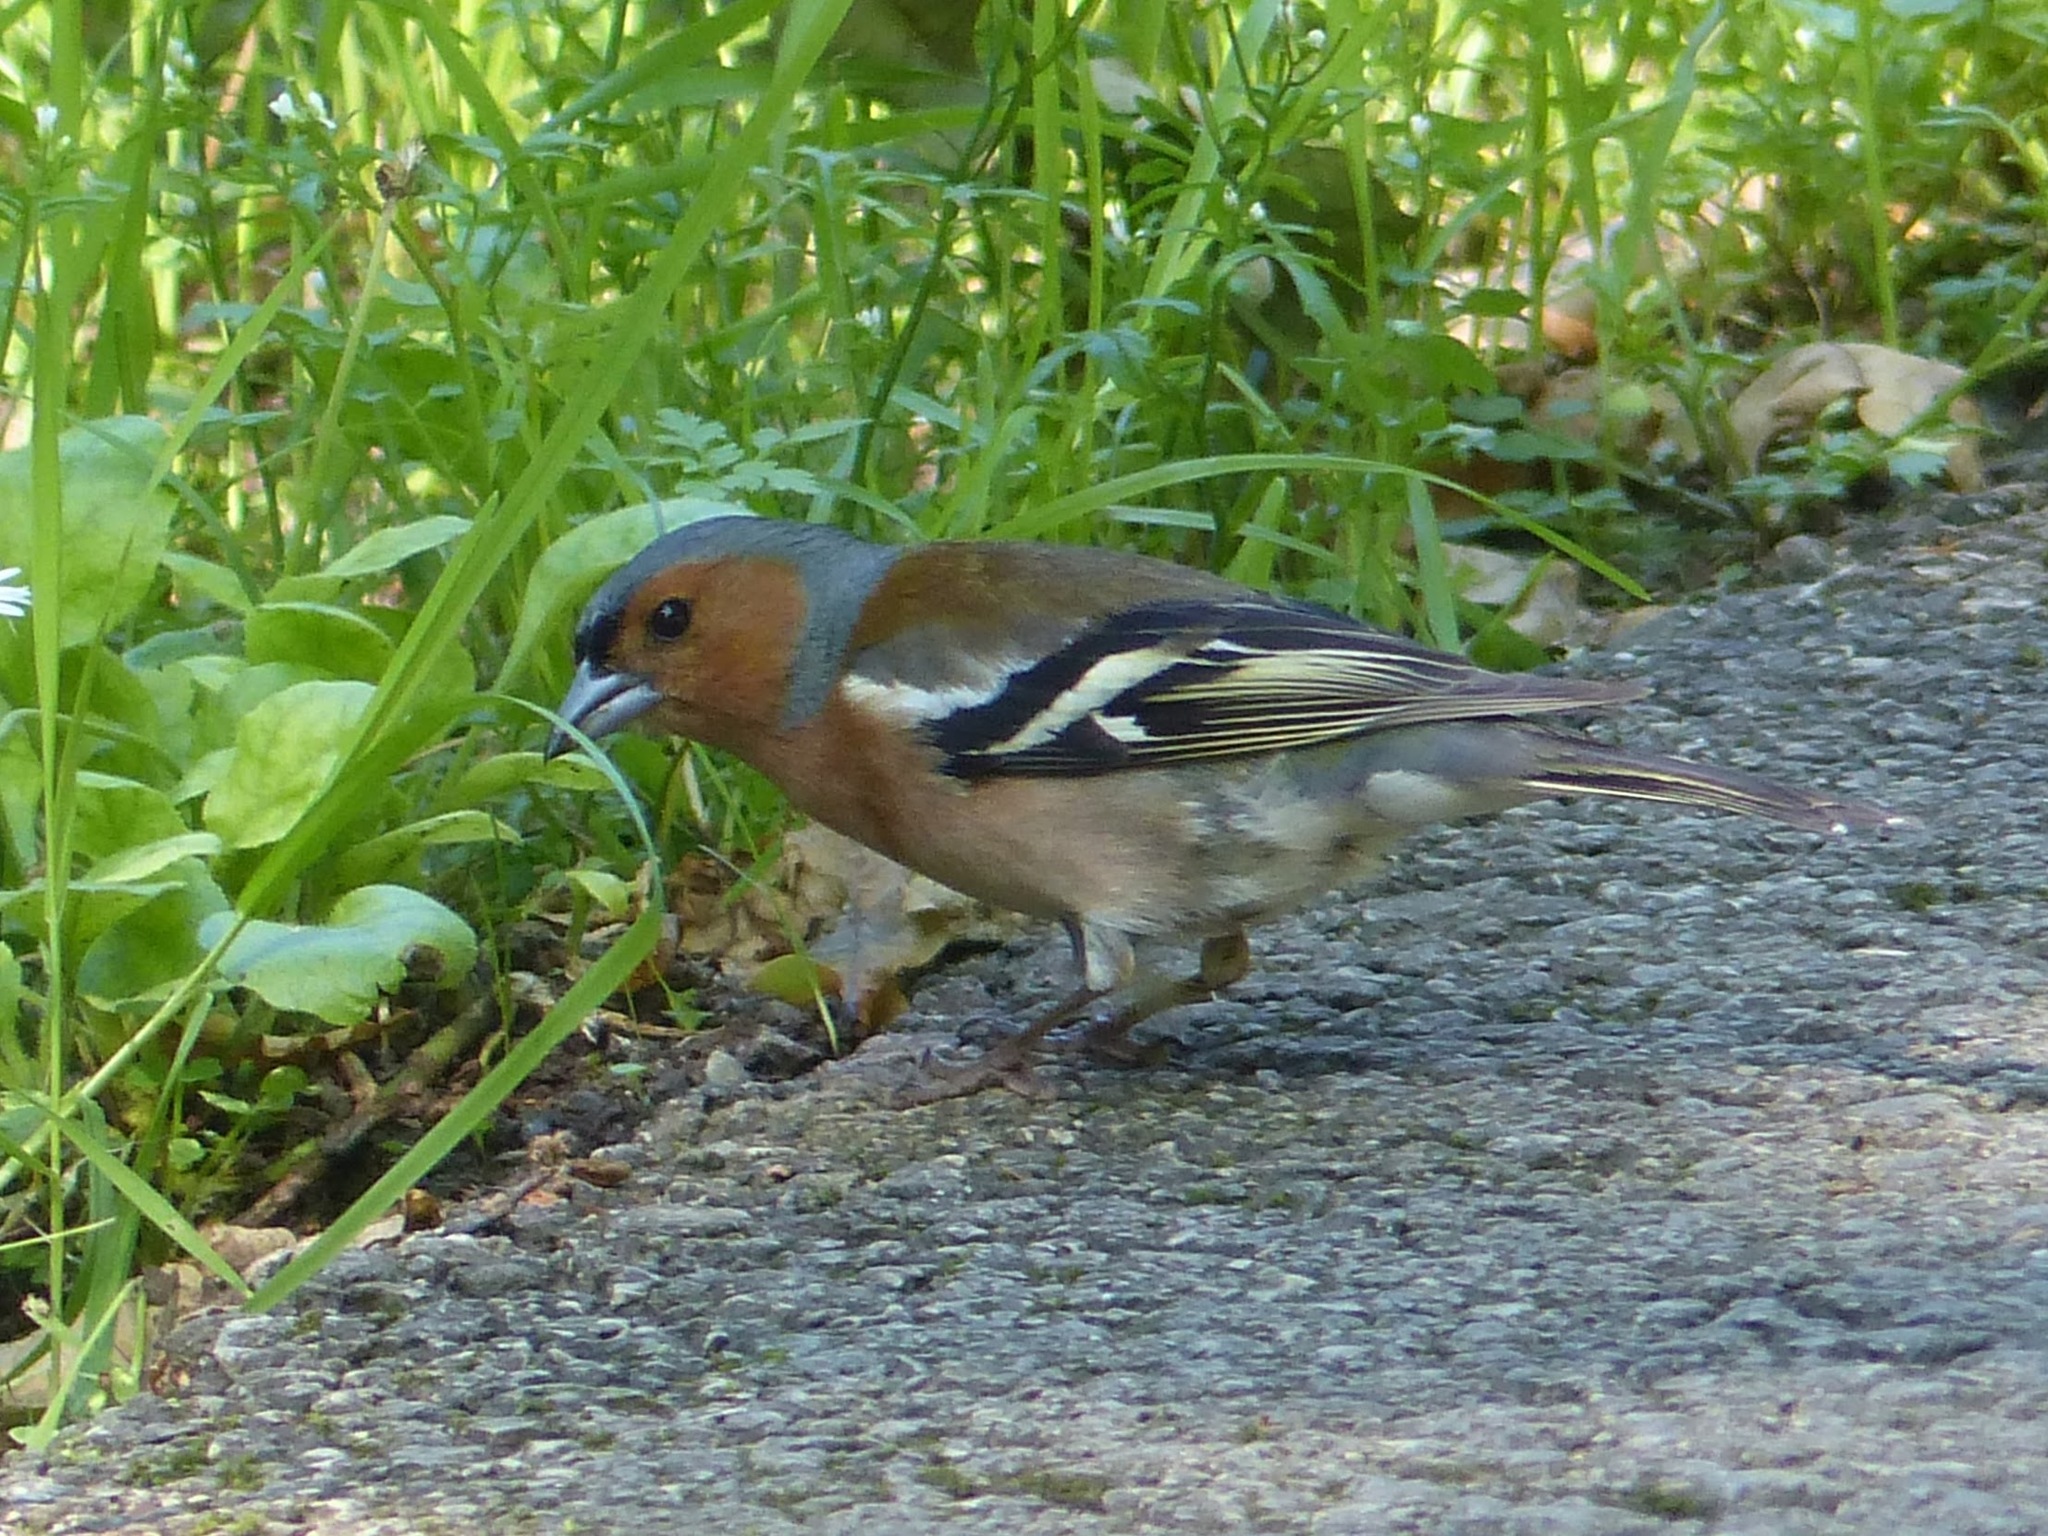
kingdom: Animalia
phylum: Chordata
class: Aves
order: Passeriformes
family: Fringillidae
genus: Fringilla
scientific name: Fringilla coelebs
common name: Common chaffinch
